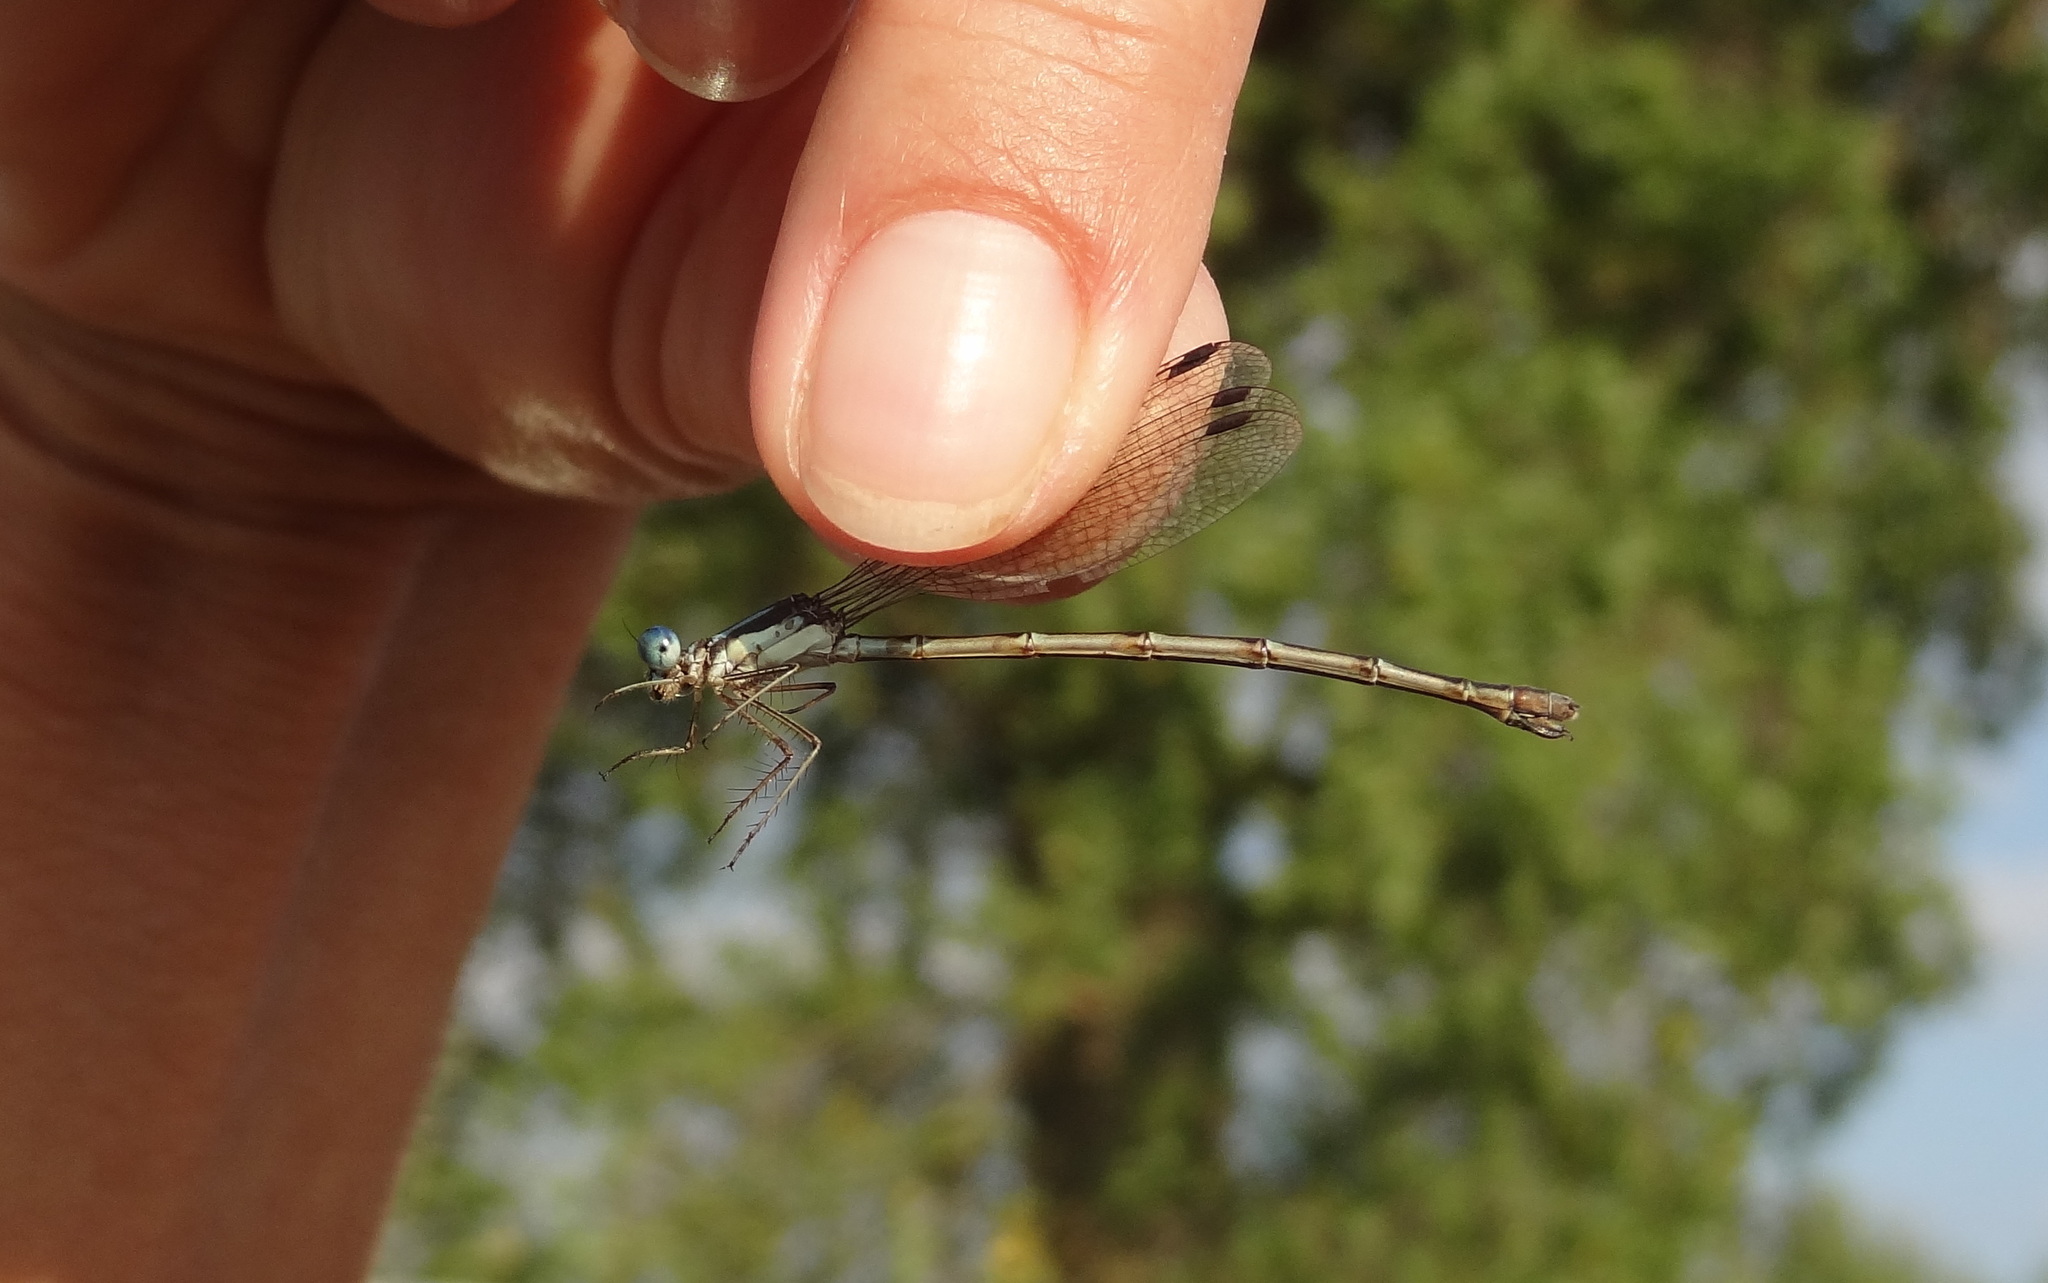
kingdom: Animalia
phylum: Arthropoda
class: Insecta
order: Odonata
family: Lestidae
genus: Lestes
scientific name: Lestes rectangularis
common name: Slender spreadwing
